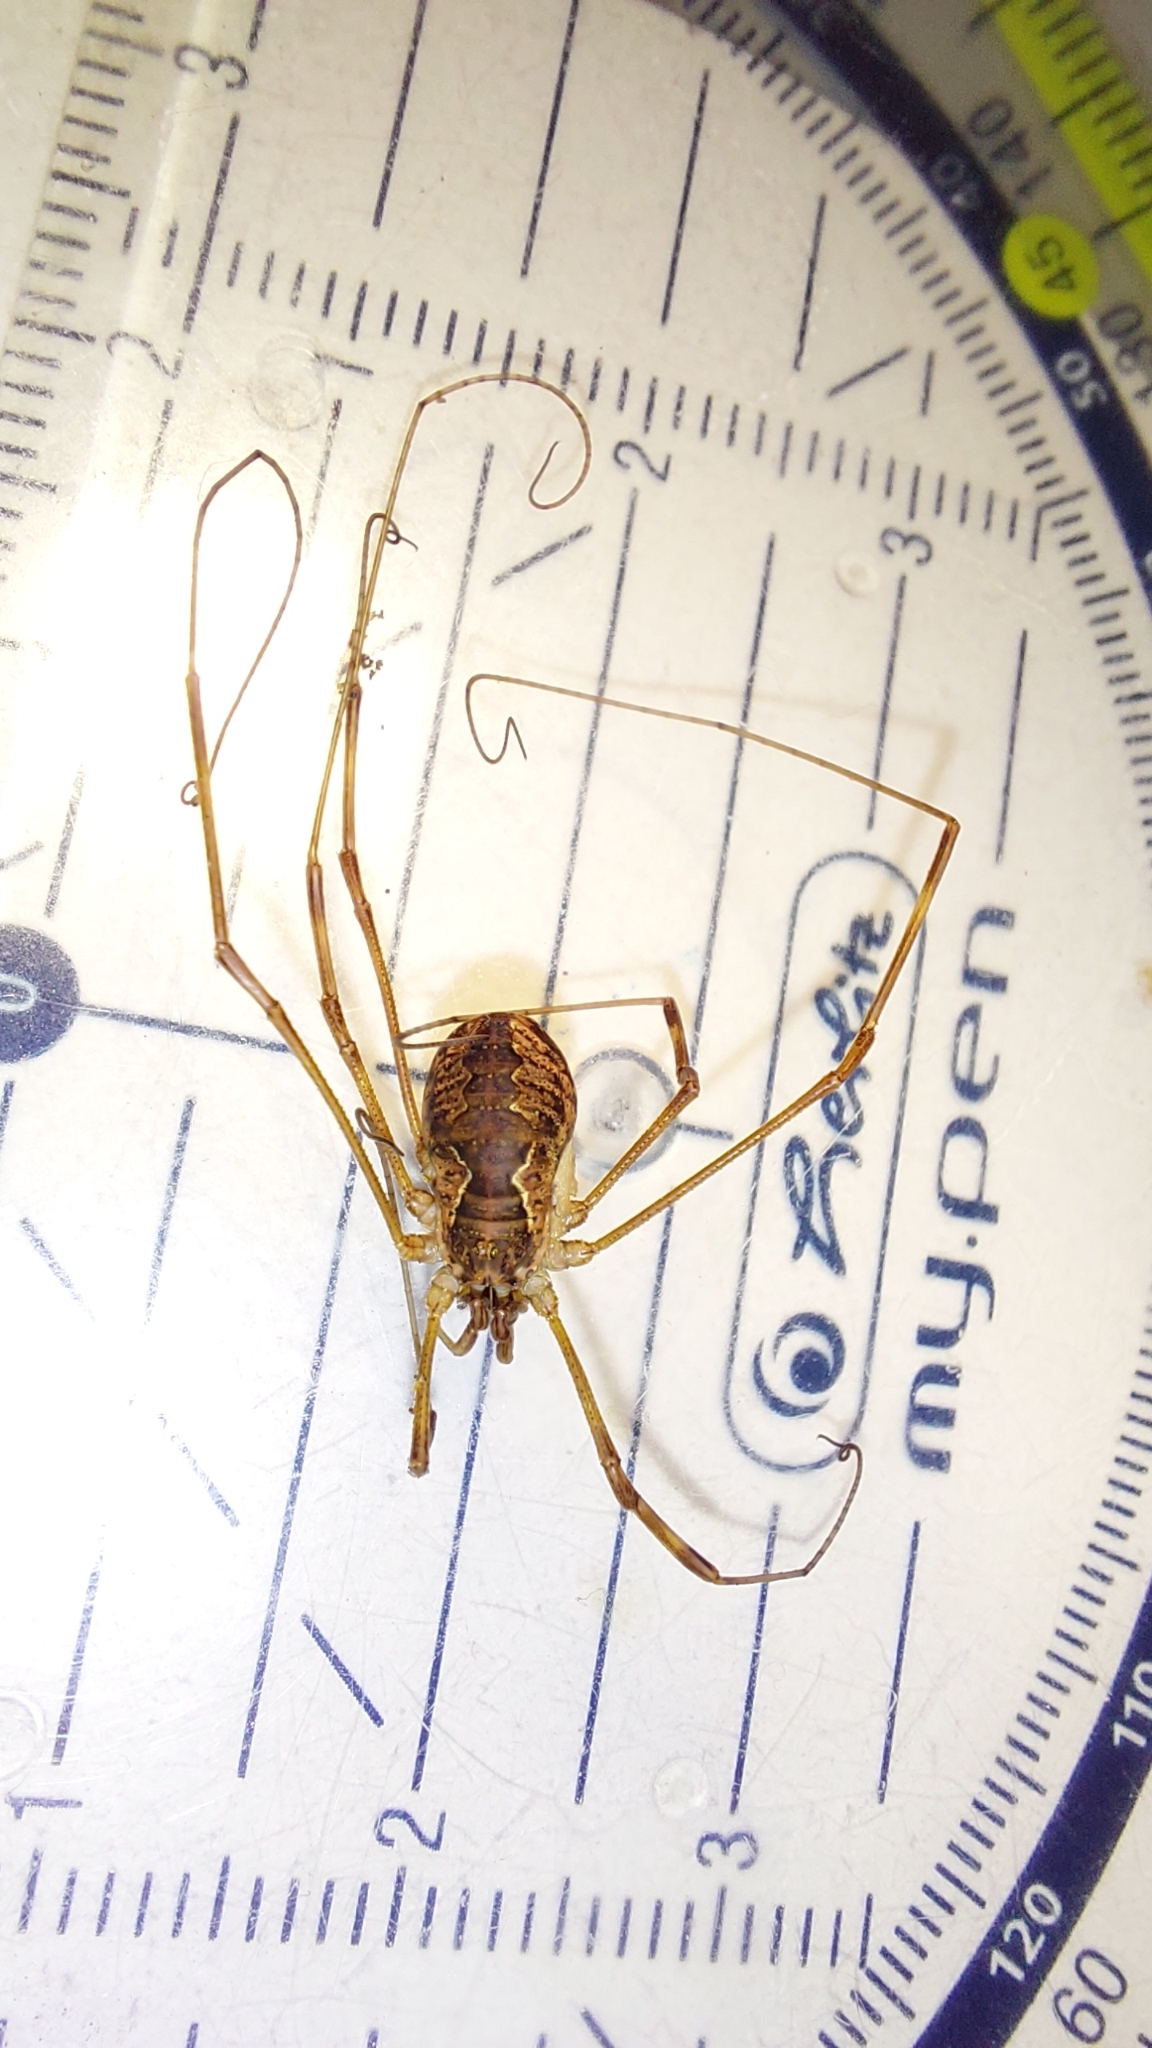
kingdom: Animalia
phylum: Arthropoda
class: Arachnida
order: Opiliones
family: Phalangiidae
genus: Mitopus
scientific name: Mitopus morio
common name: Saddleback harvestman
